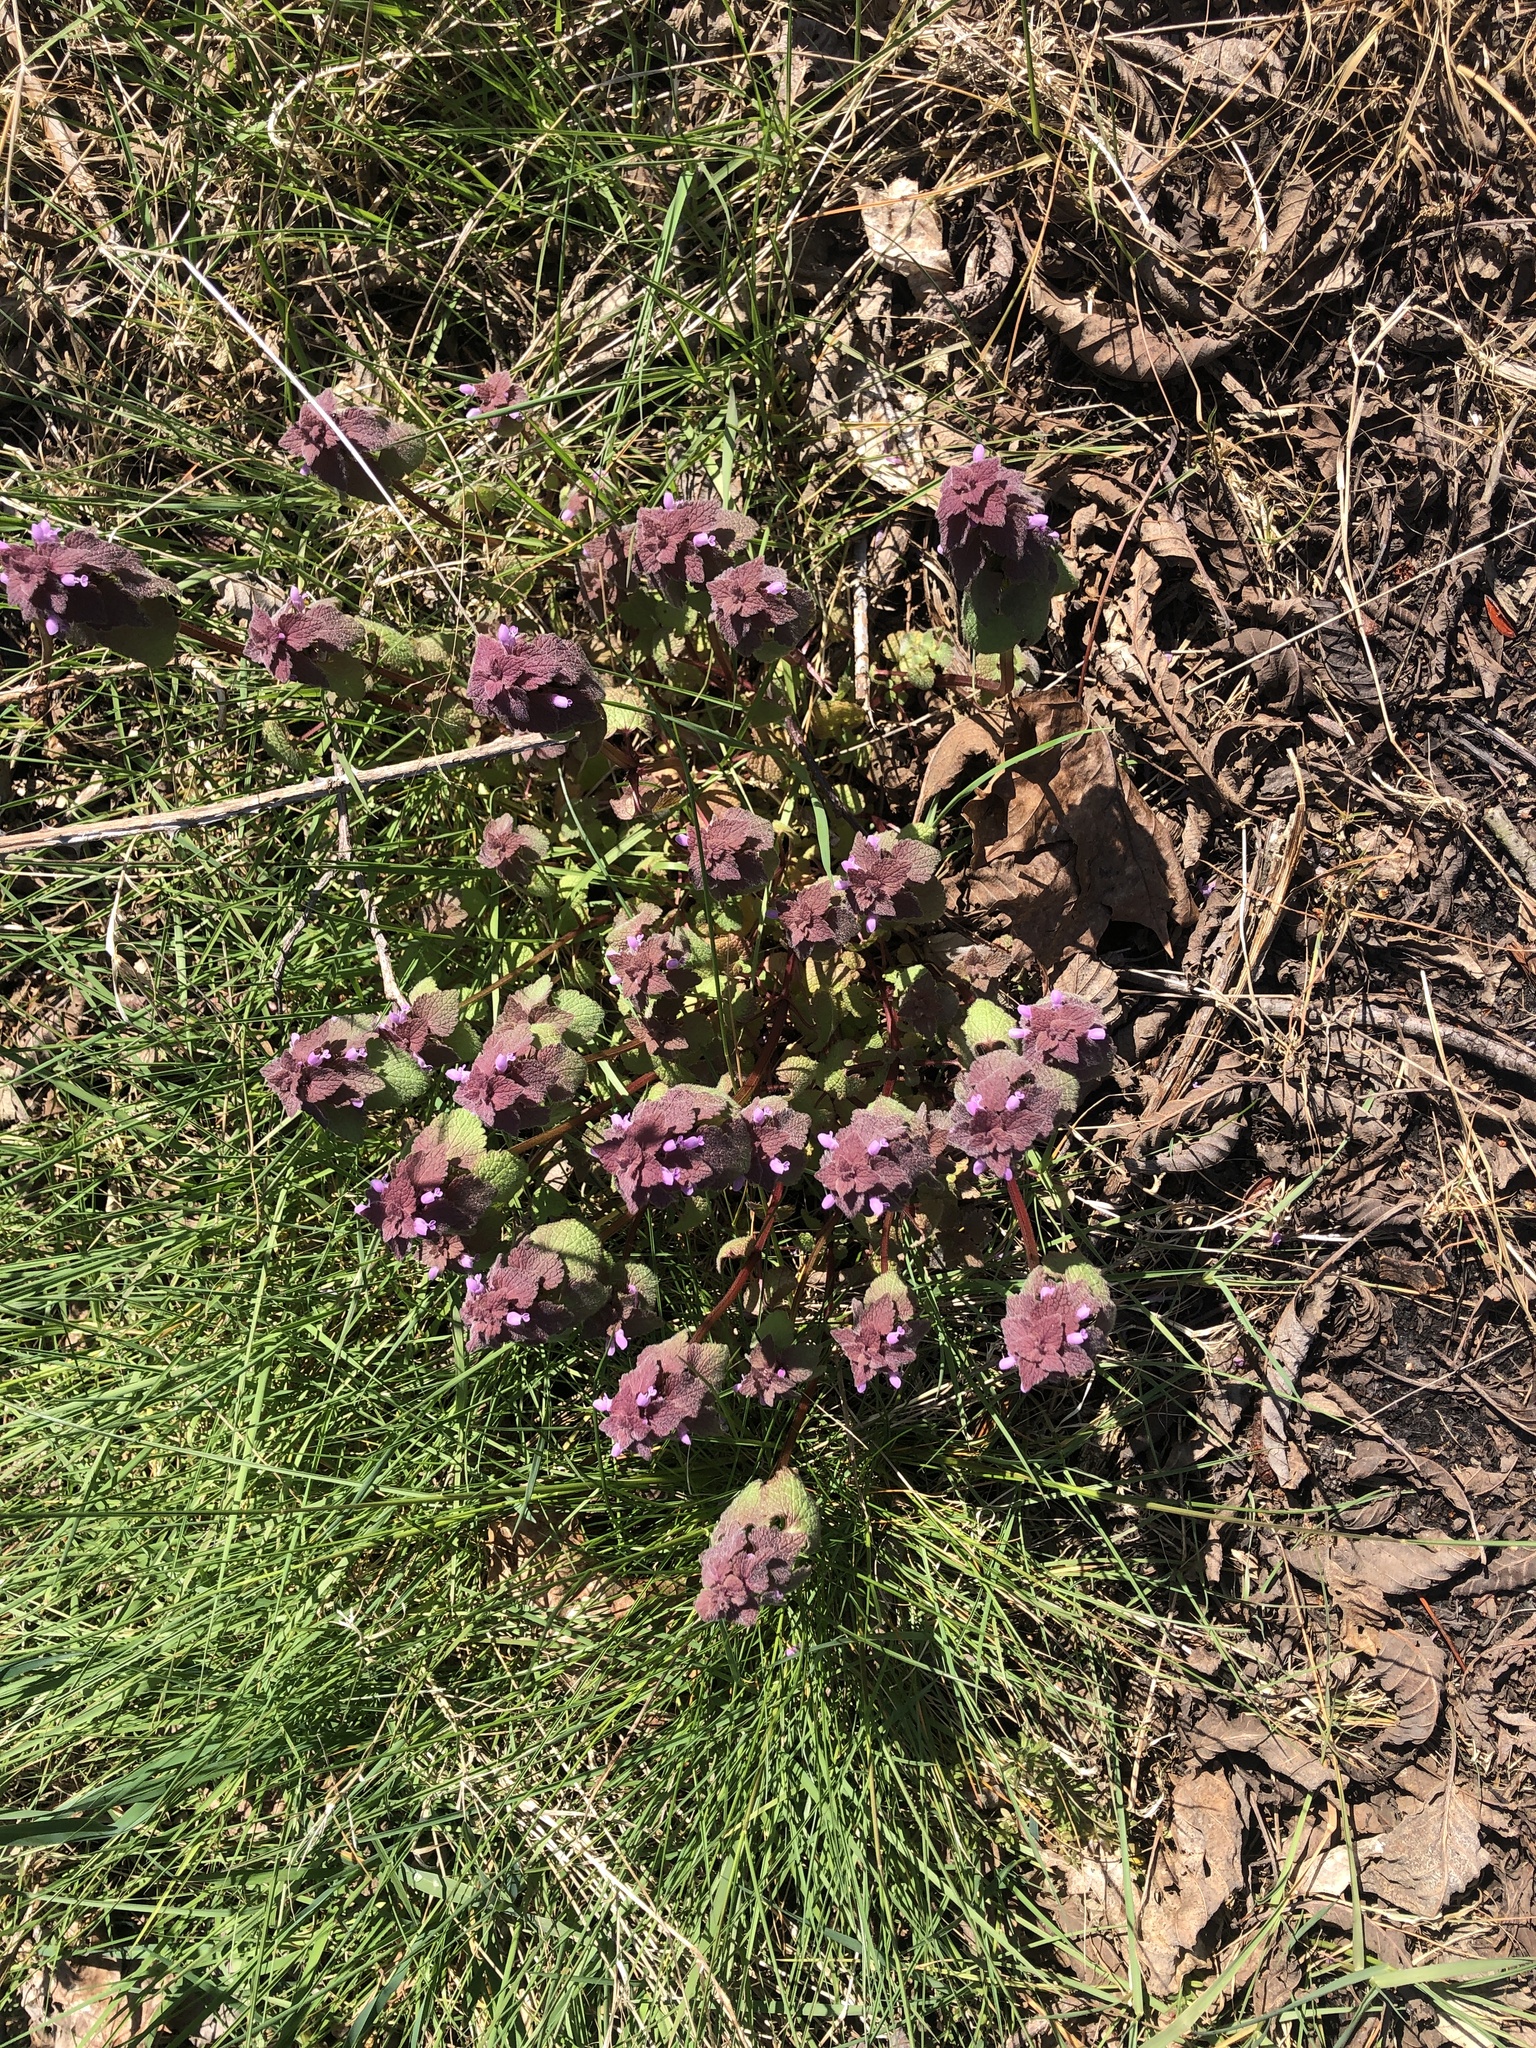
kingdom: Plantae
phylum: Tracheophyta
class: Magnoliopsida
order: Lamiales
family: Lamiaceae
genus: Lamium
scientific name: Lamium purpureum
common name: Red dead-nettle
